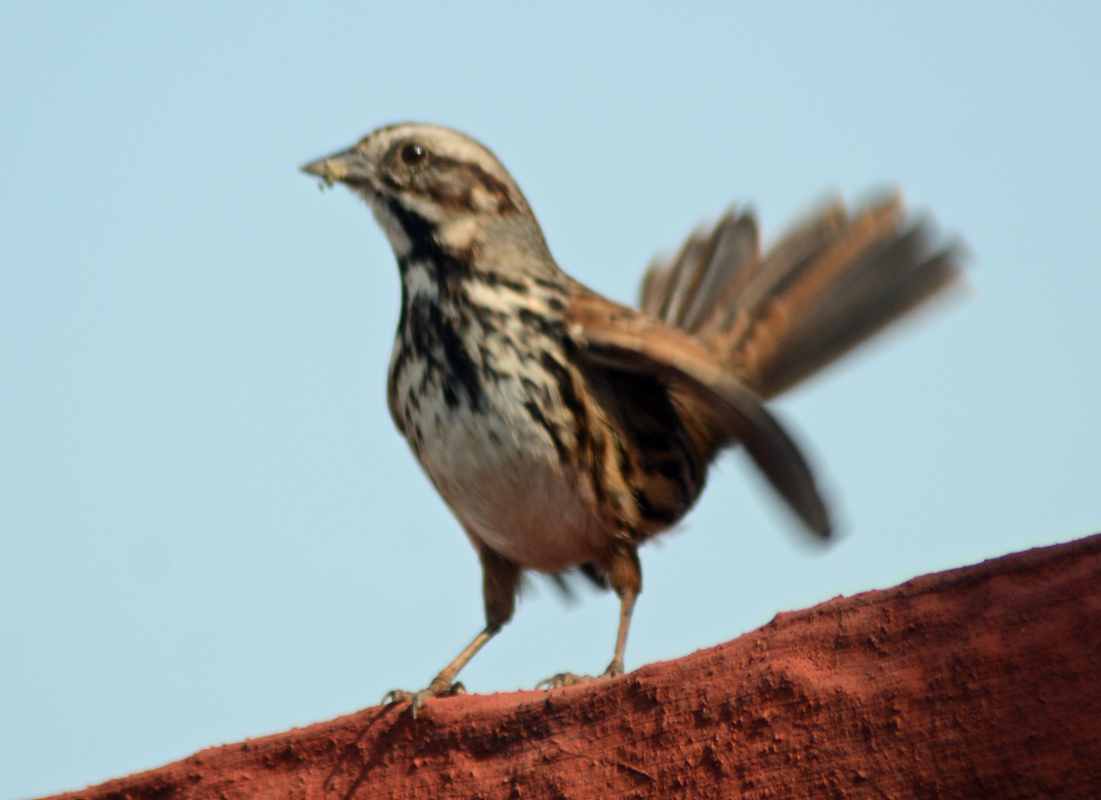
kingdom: Animalia
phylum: Chordata
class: Aves
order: Passeriformes
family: Passerellidae
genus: Melospiza
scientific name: Melospiza melodia
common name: Song sparrow
